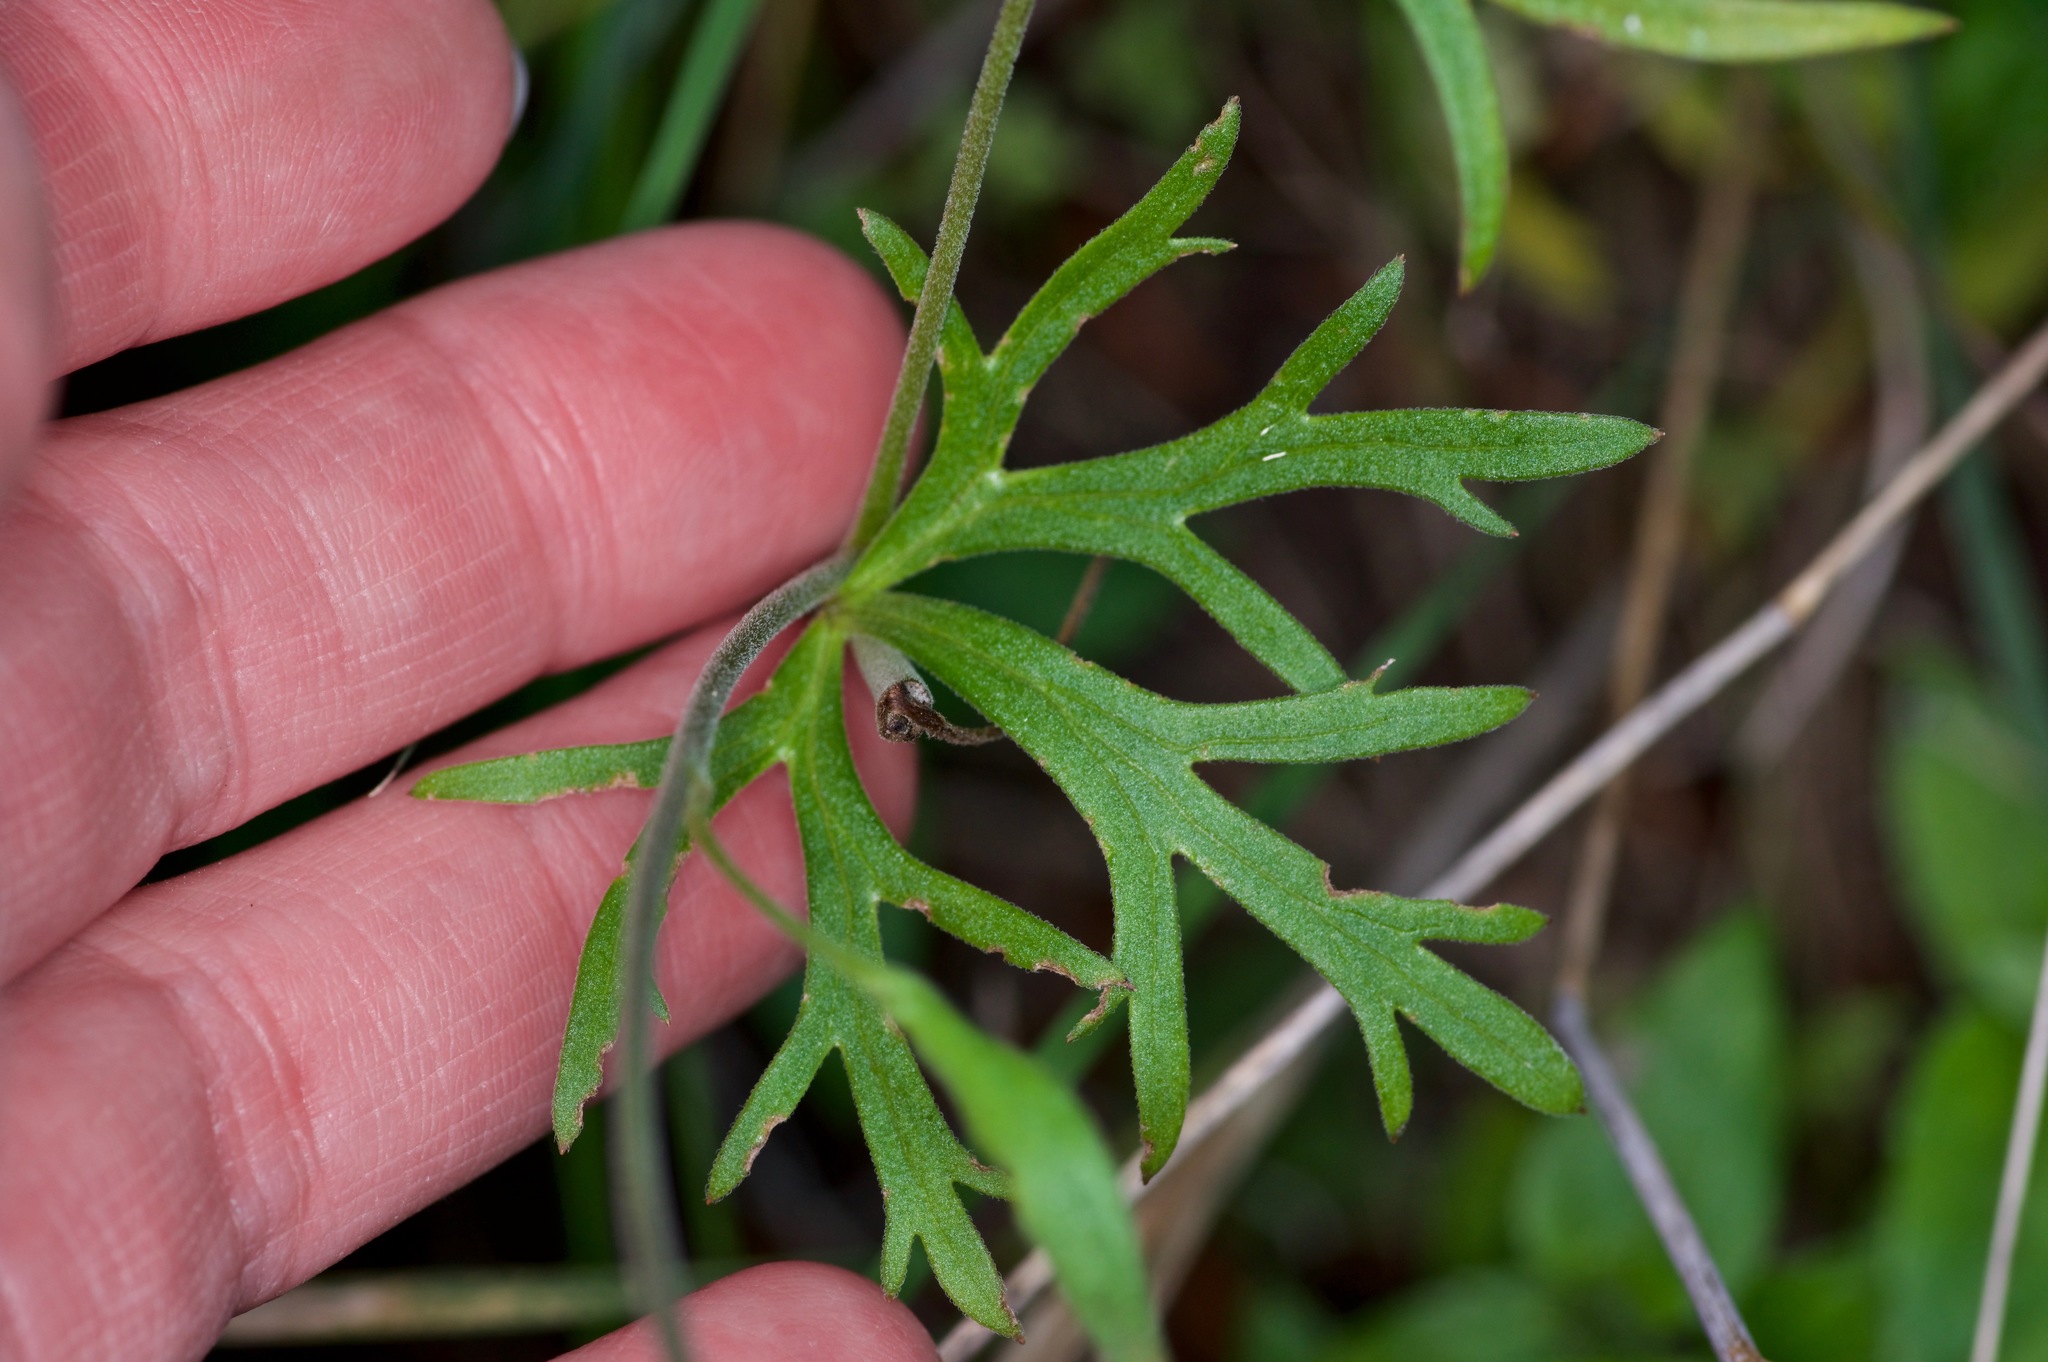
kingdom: Plantae
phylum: Tracheophyta
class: Magnoliopsida
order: Ranunculales
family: Ranunculaceae
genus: Delphinium
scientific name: Delphinium carolinianum
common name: Carolina larkspur
